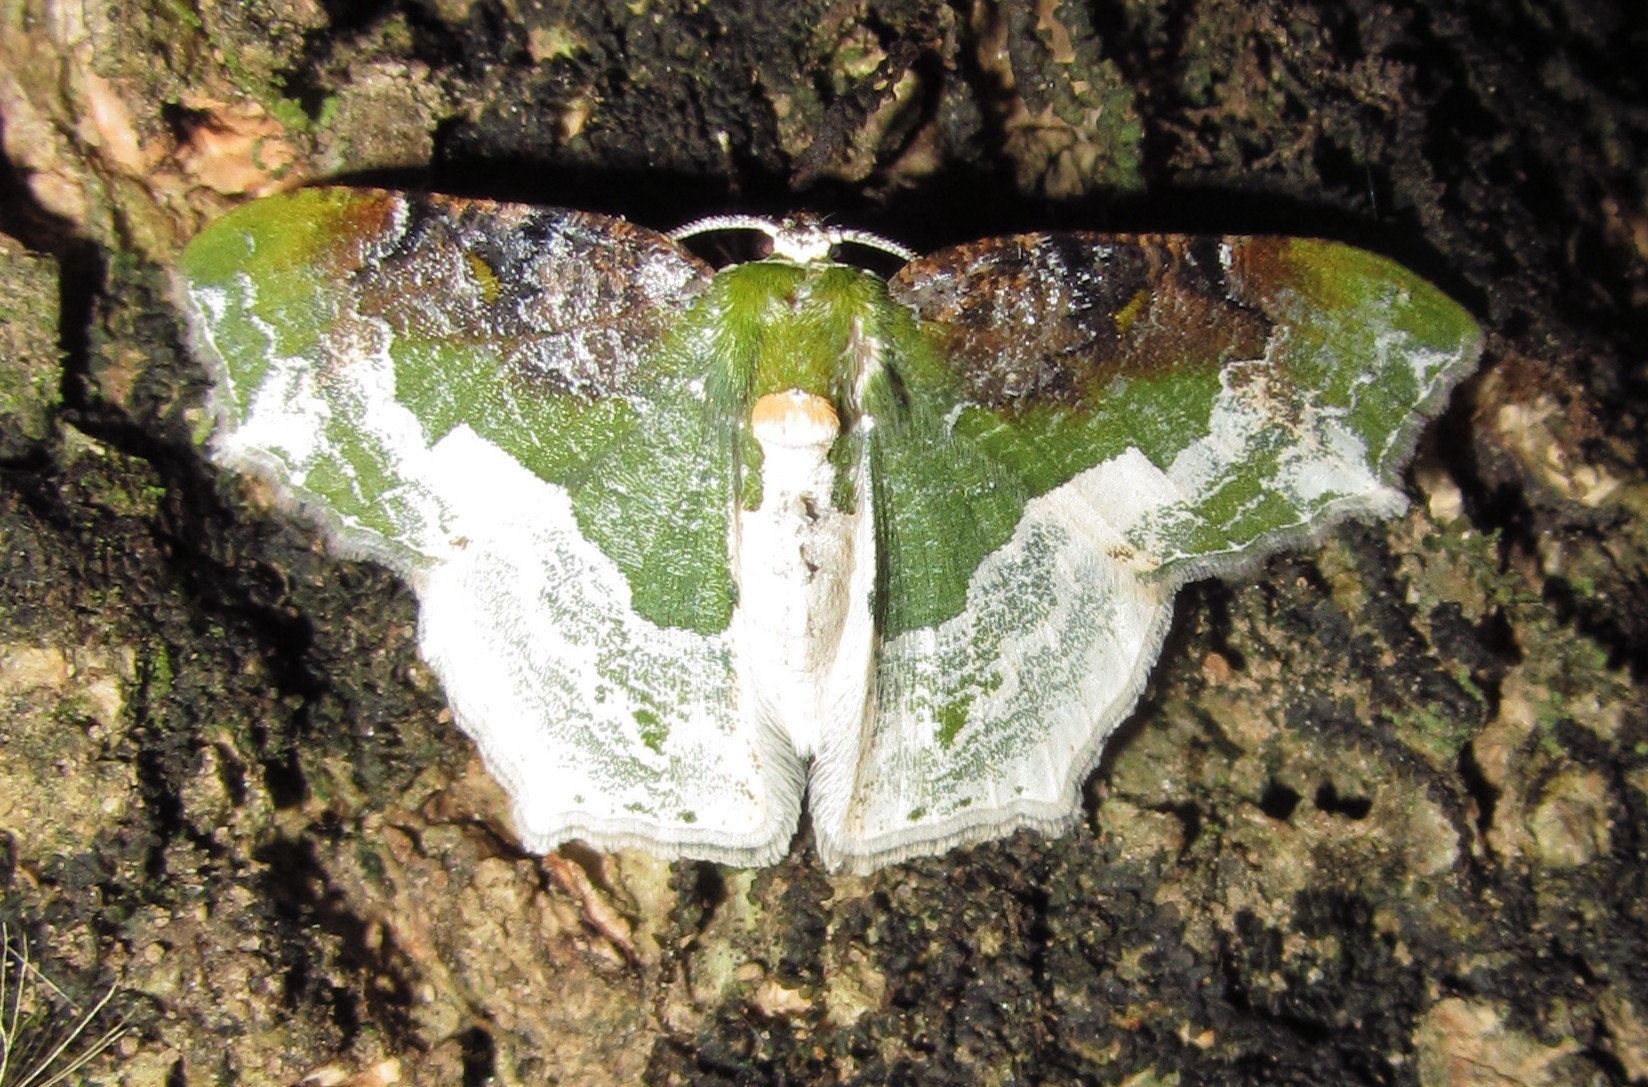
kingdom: Animalia
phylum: Arthropoda
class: Insecta
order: Lepidoptera
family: Geometridae
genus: Eucyclodes
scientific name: Eucyclodes semialba
